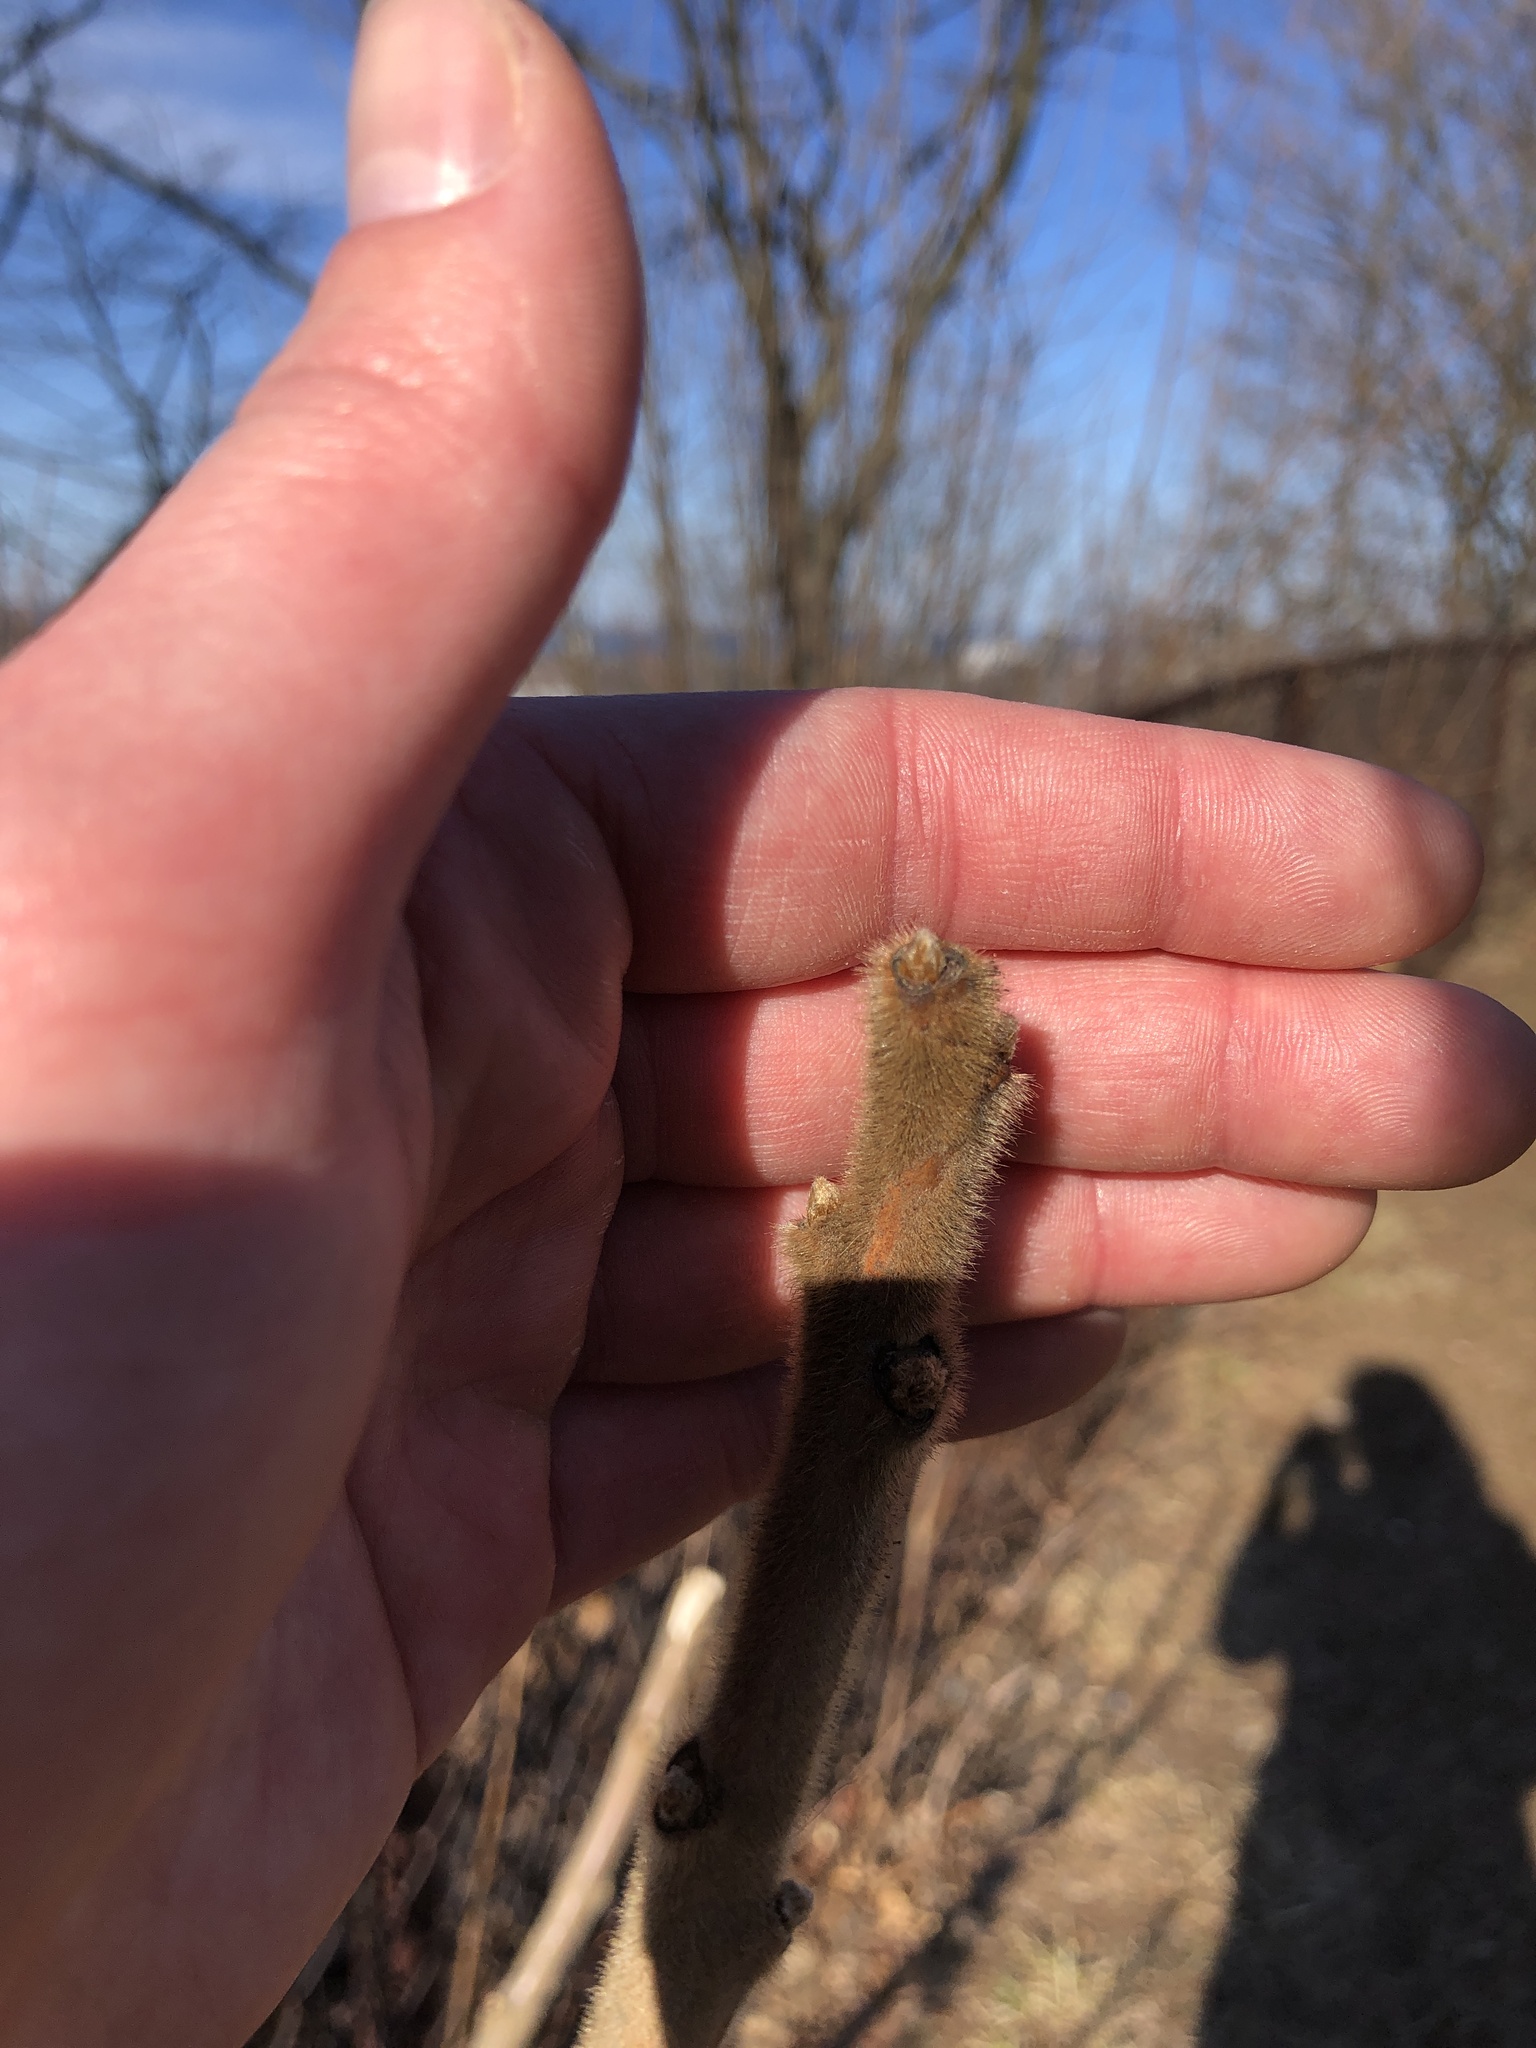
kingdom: Plantae
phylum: Tracheophyta
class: Magnoliopsida
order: Sapindales
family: Anacardiaceae
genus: Rhus
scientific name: Rhus typhina
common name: Staghorn sumac
